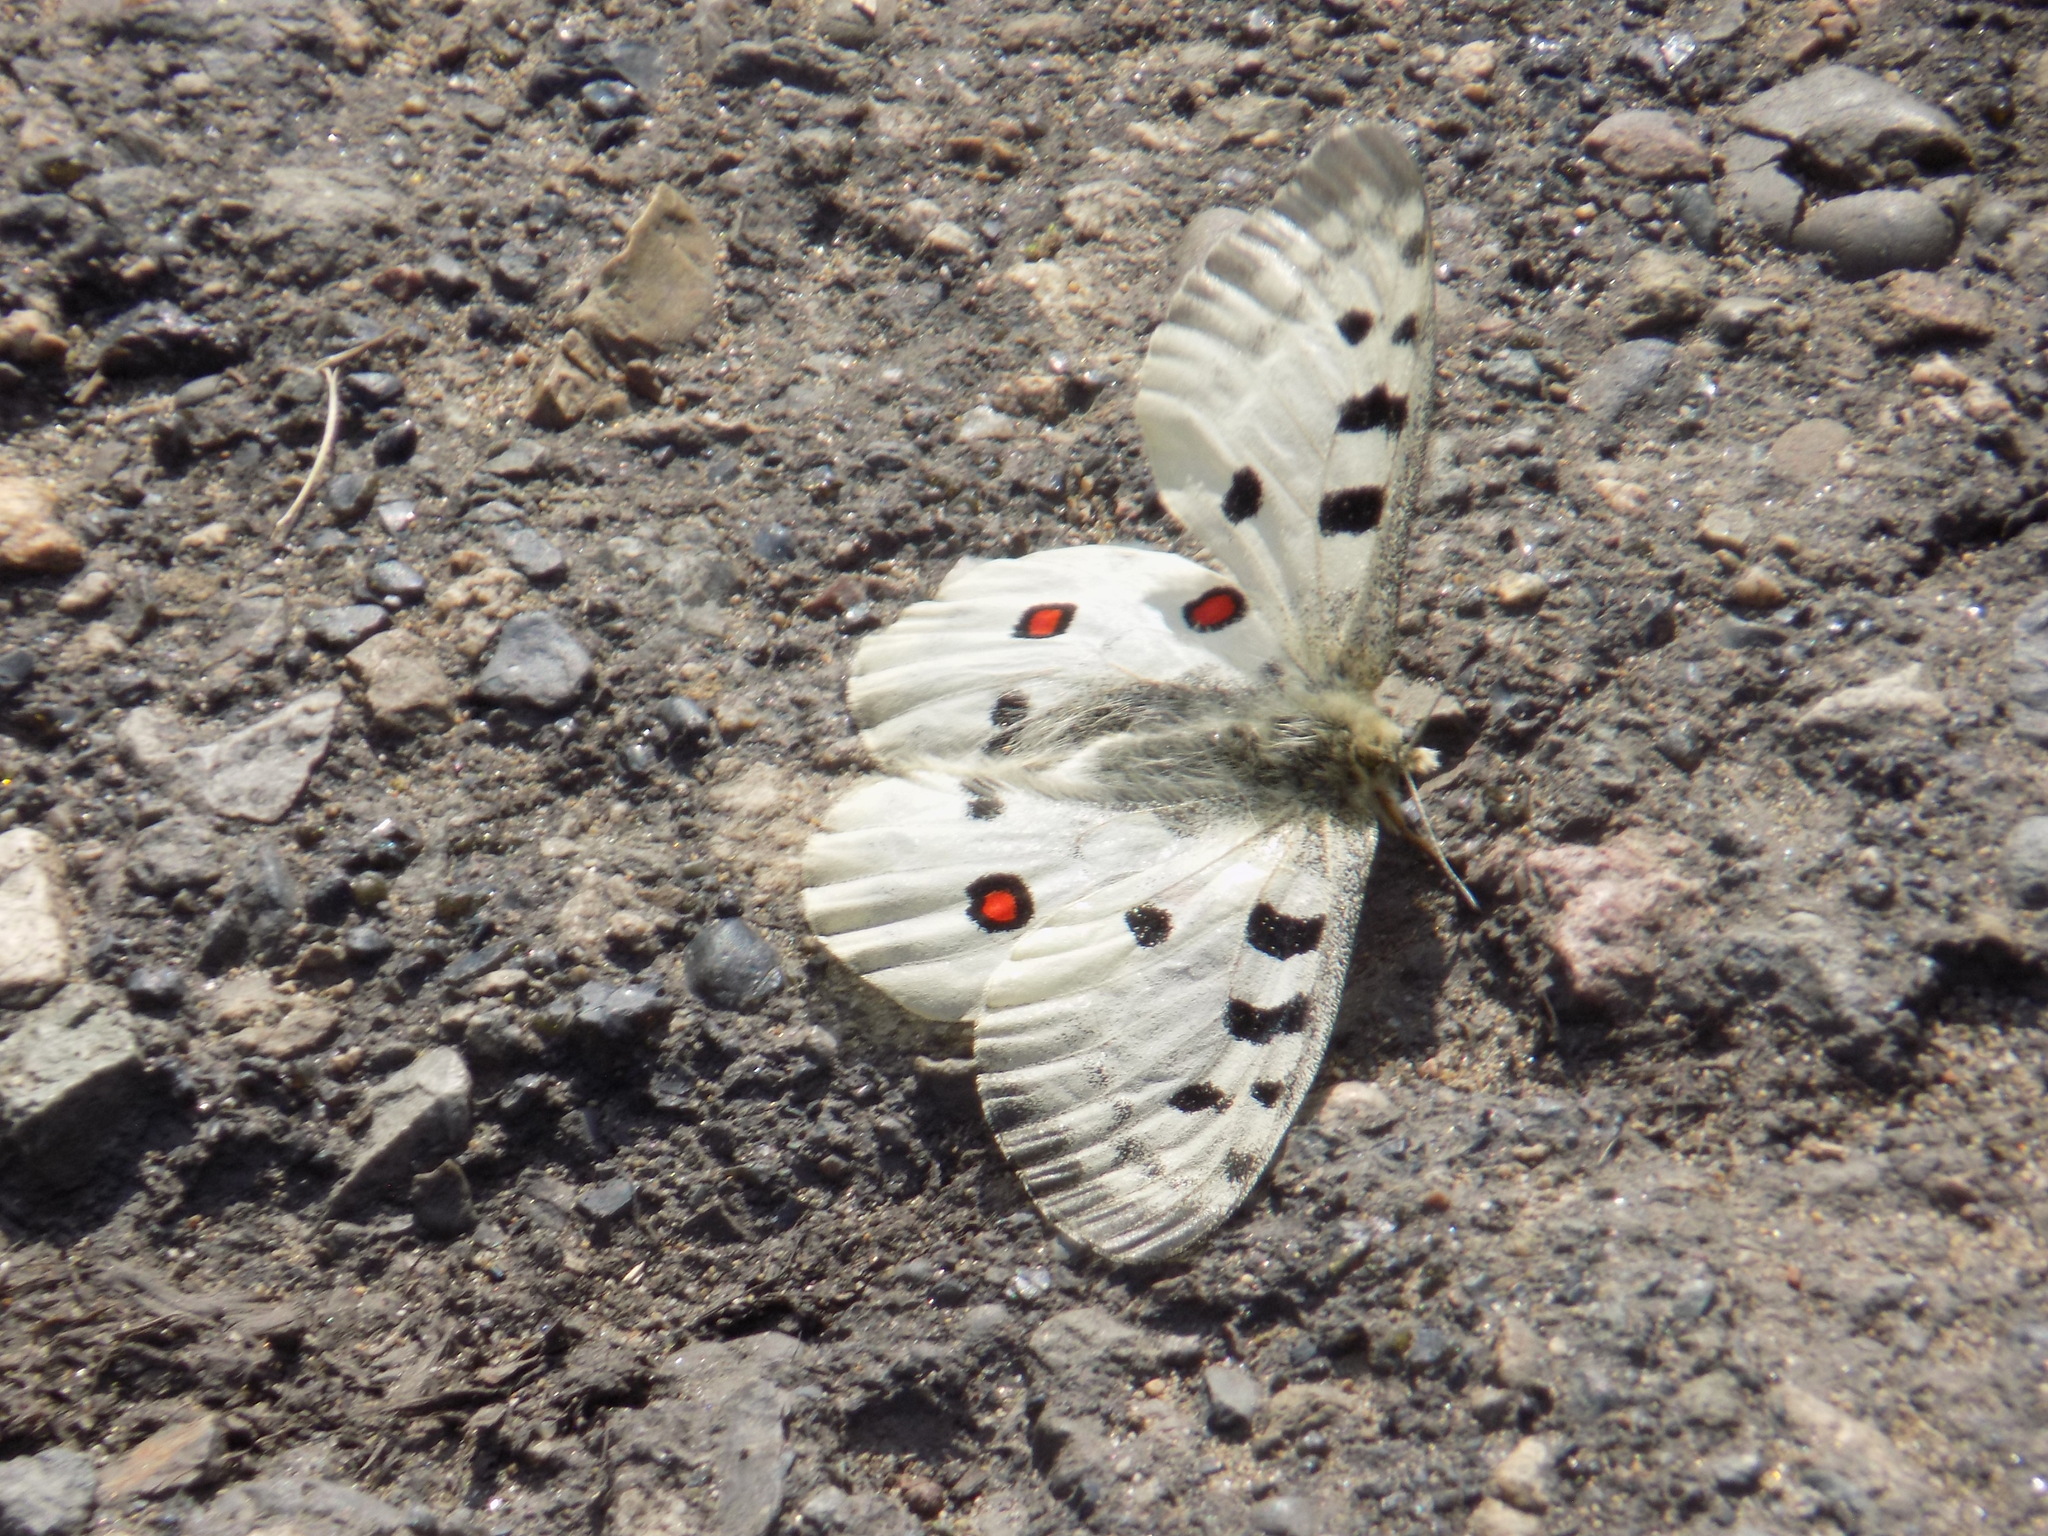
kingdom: Animalia
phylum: Arthropoda
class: Insecta
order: Lepidoptera
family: Papilionidae
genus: Parnassius
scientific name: Parnassius apollo
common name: Apollo
